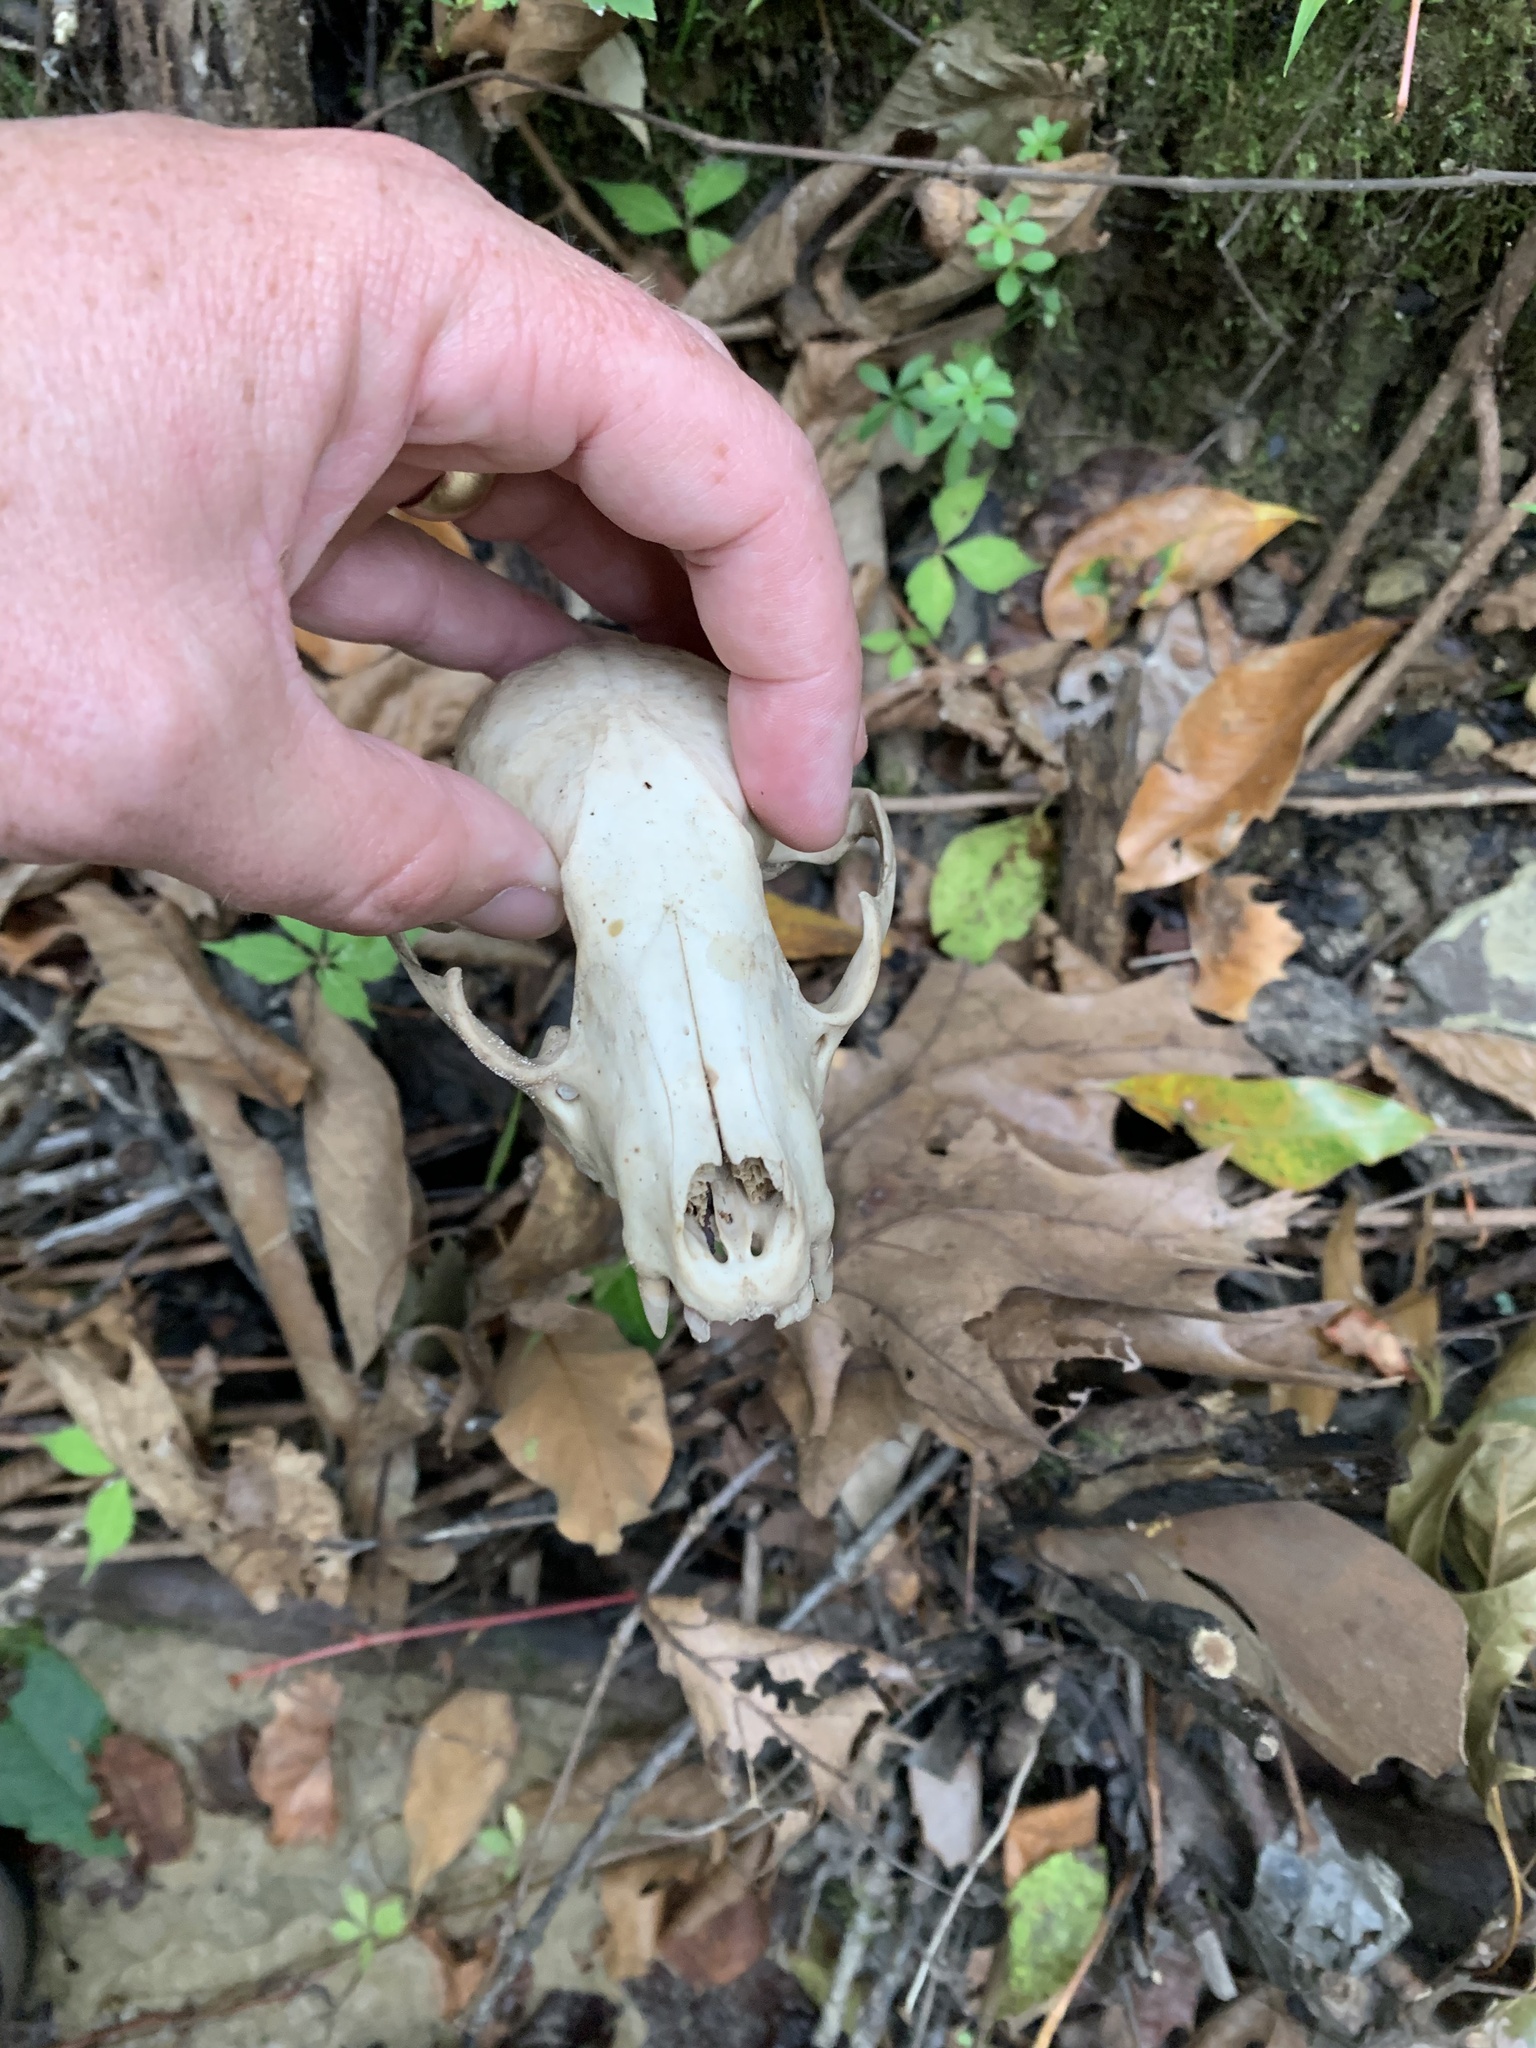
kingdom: Animalia
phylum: Chordata
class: Mammalia
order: Carnivora
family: Procyonidae
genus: Procyon
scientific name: Procyon lotor
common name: Raccoon
